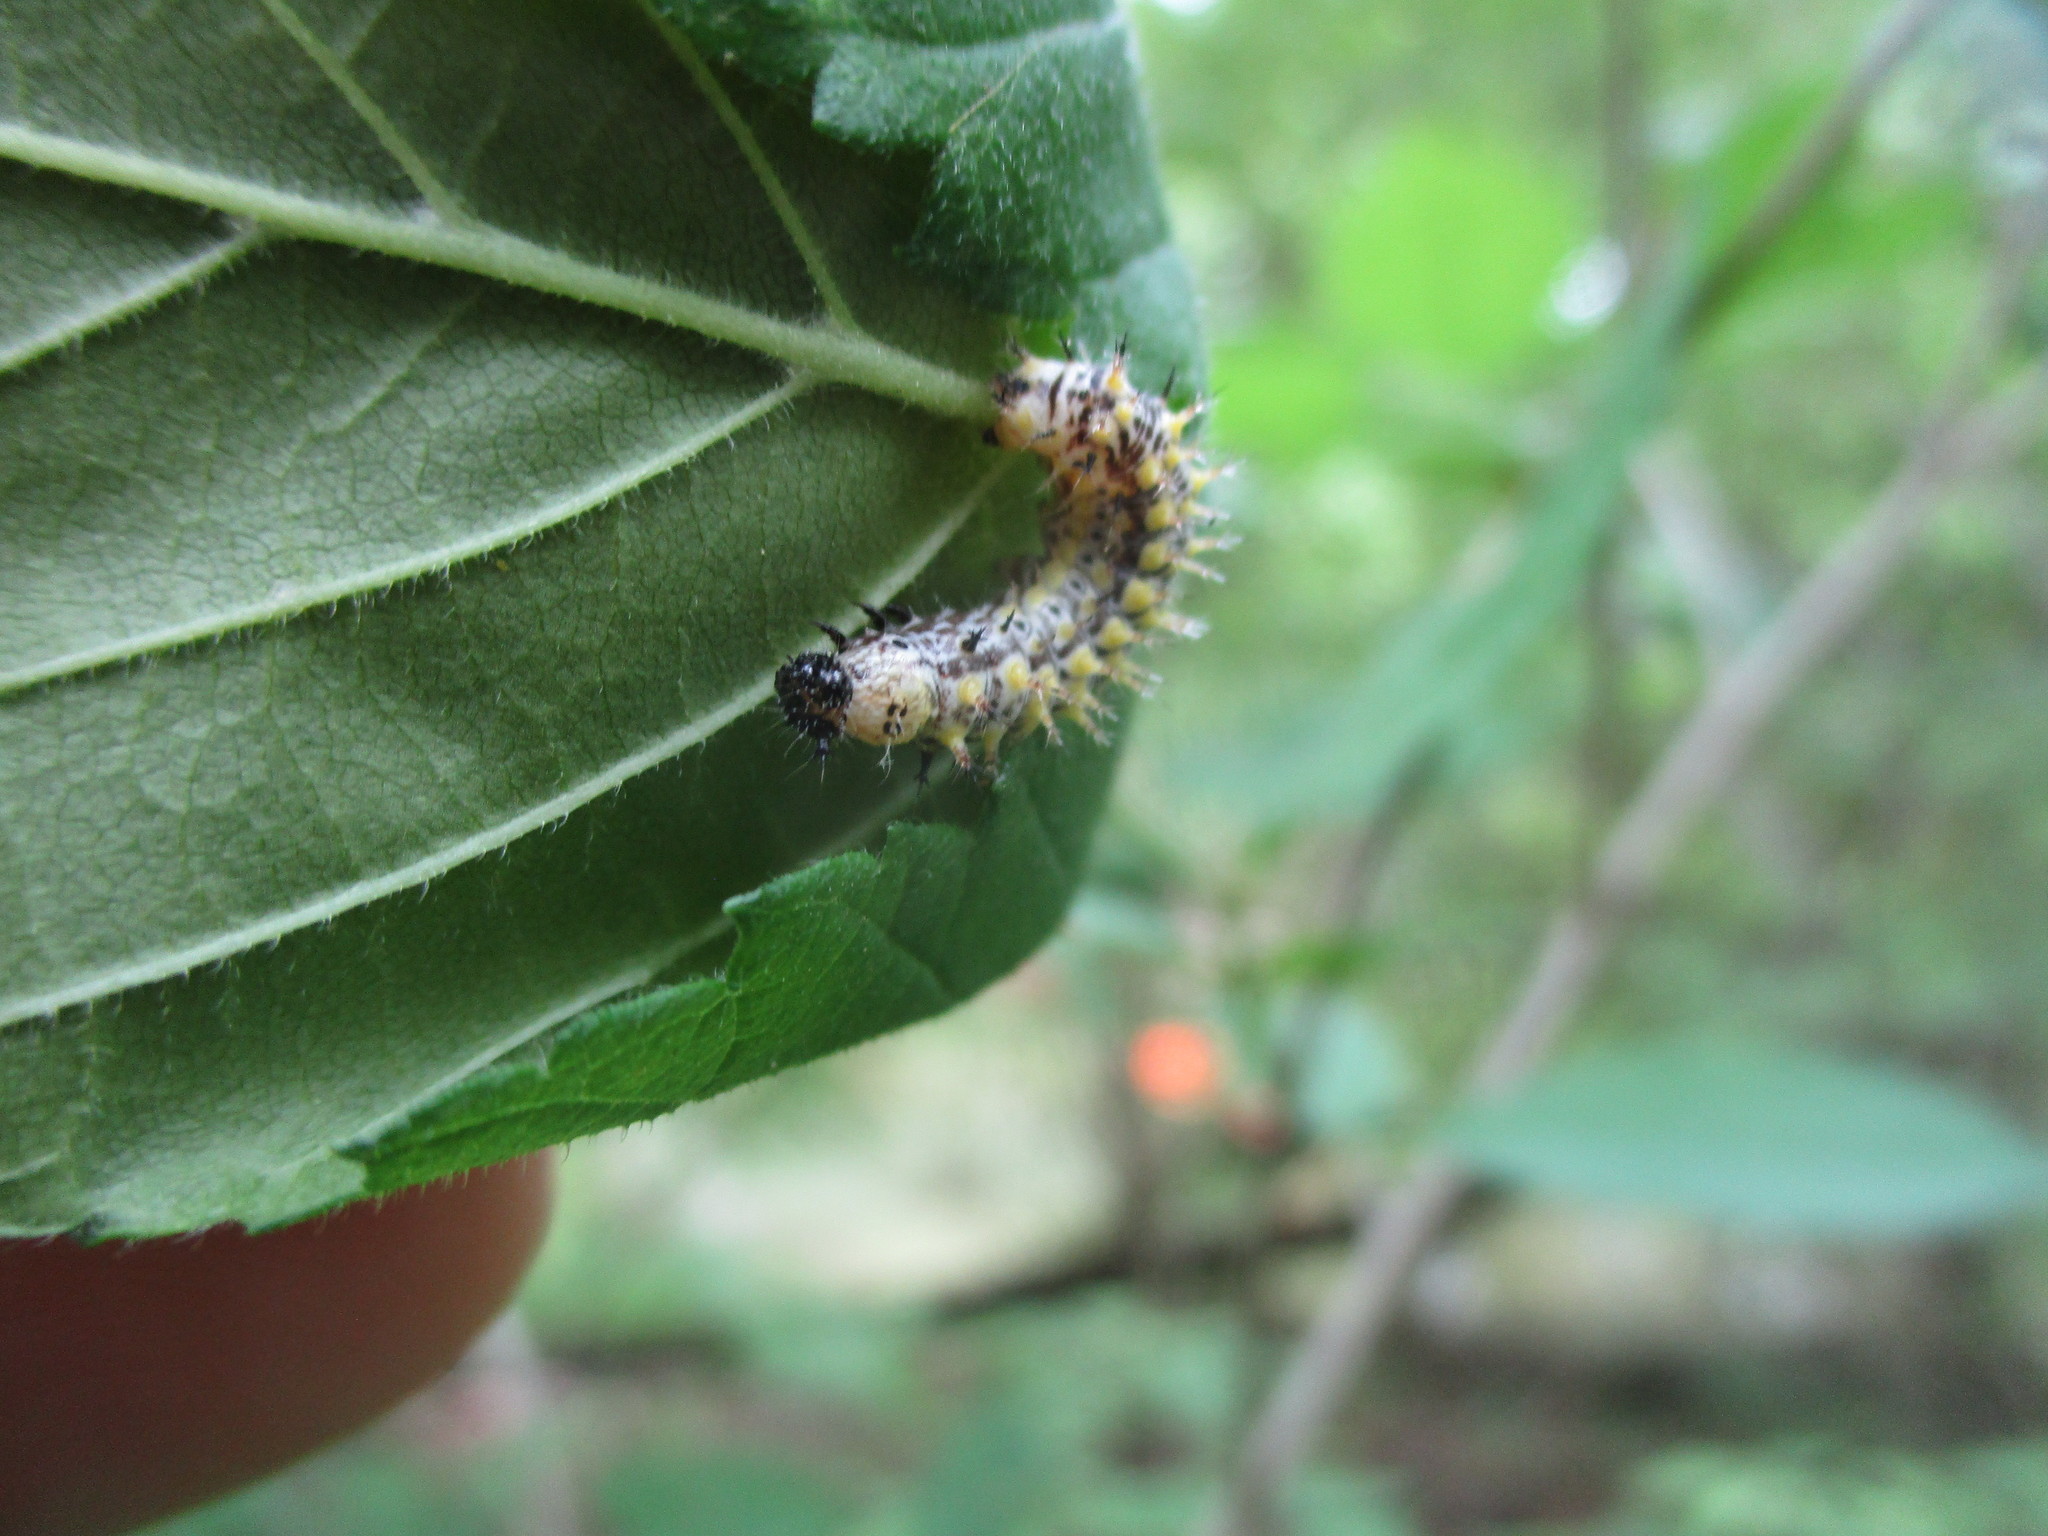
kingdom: Animalia
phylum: Arthropoda
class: Insecta
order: Lepidoptera
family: Nymphalidae
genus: Polygonia
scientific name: Polygonia comma
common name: Eastern comma
